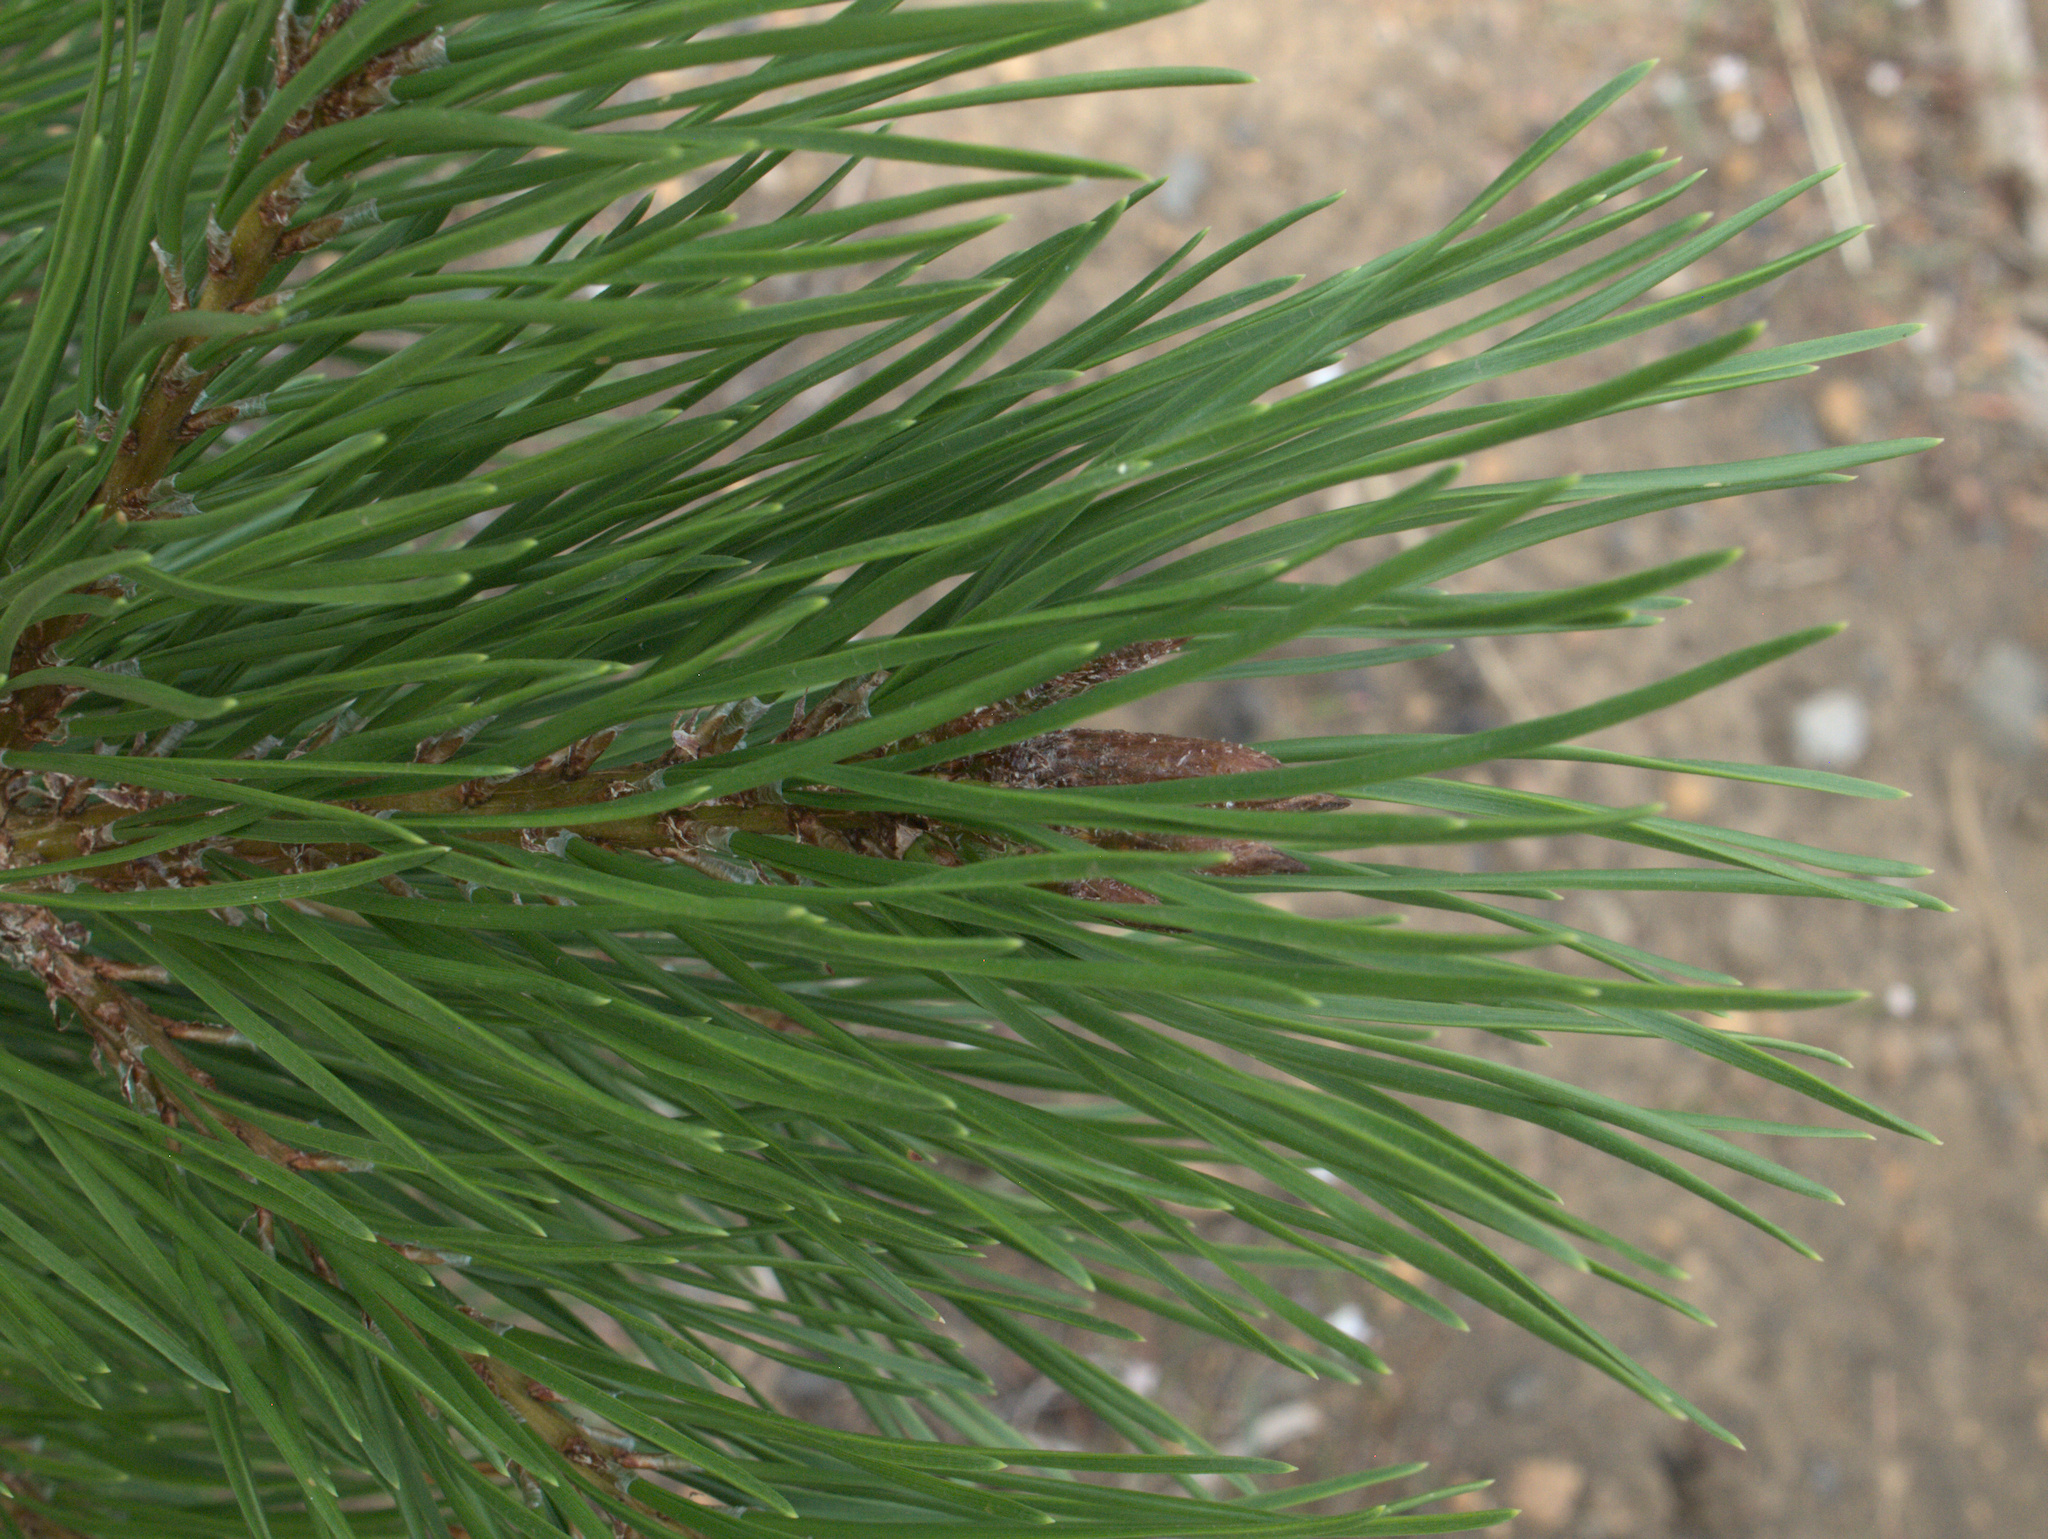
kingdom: Plantae
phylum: Tracheophyta
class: Pinopsida
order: Pinales
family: Pinaceae
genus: Pinus
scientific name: Pinus contorta
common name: Lodgepole pine
